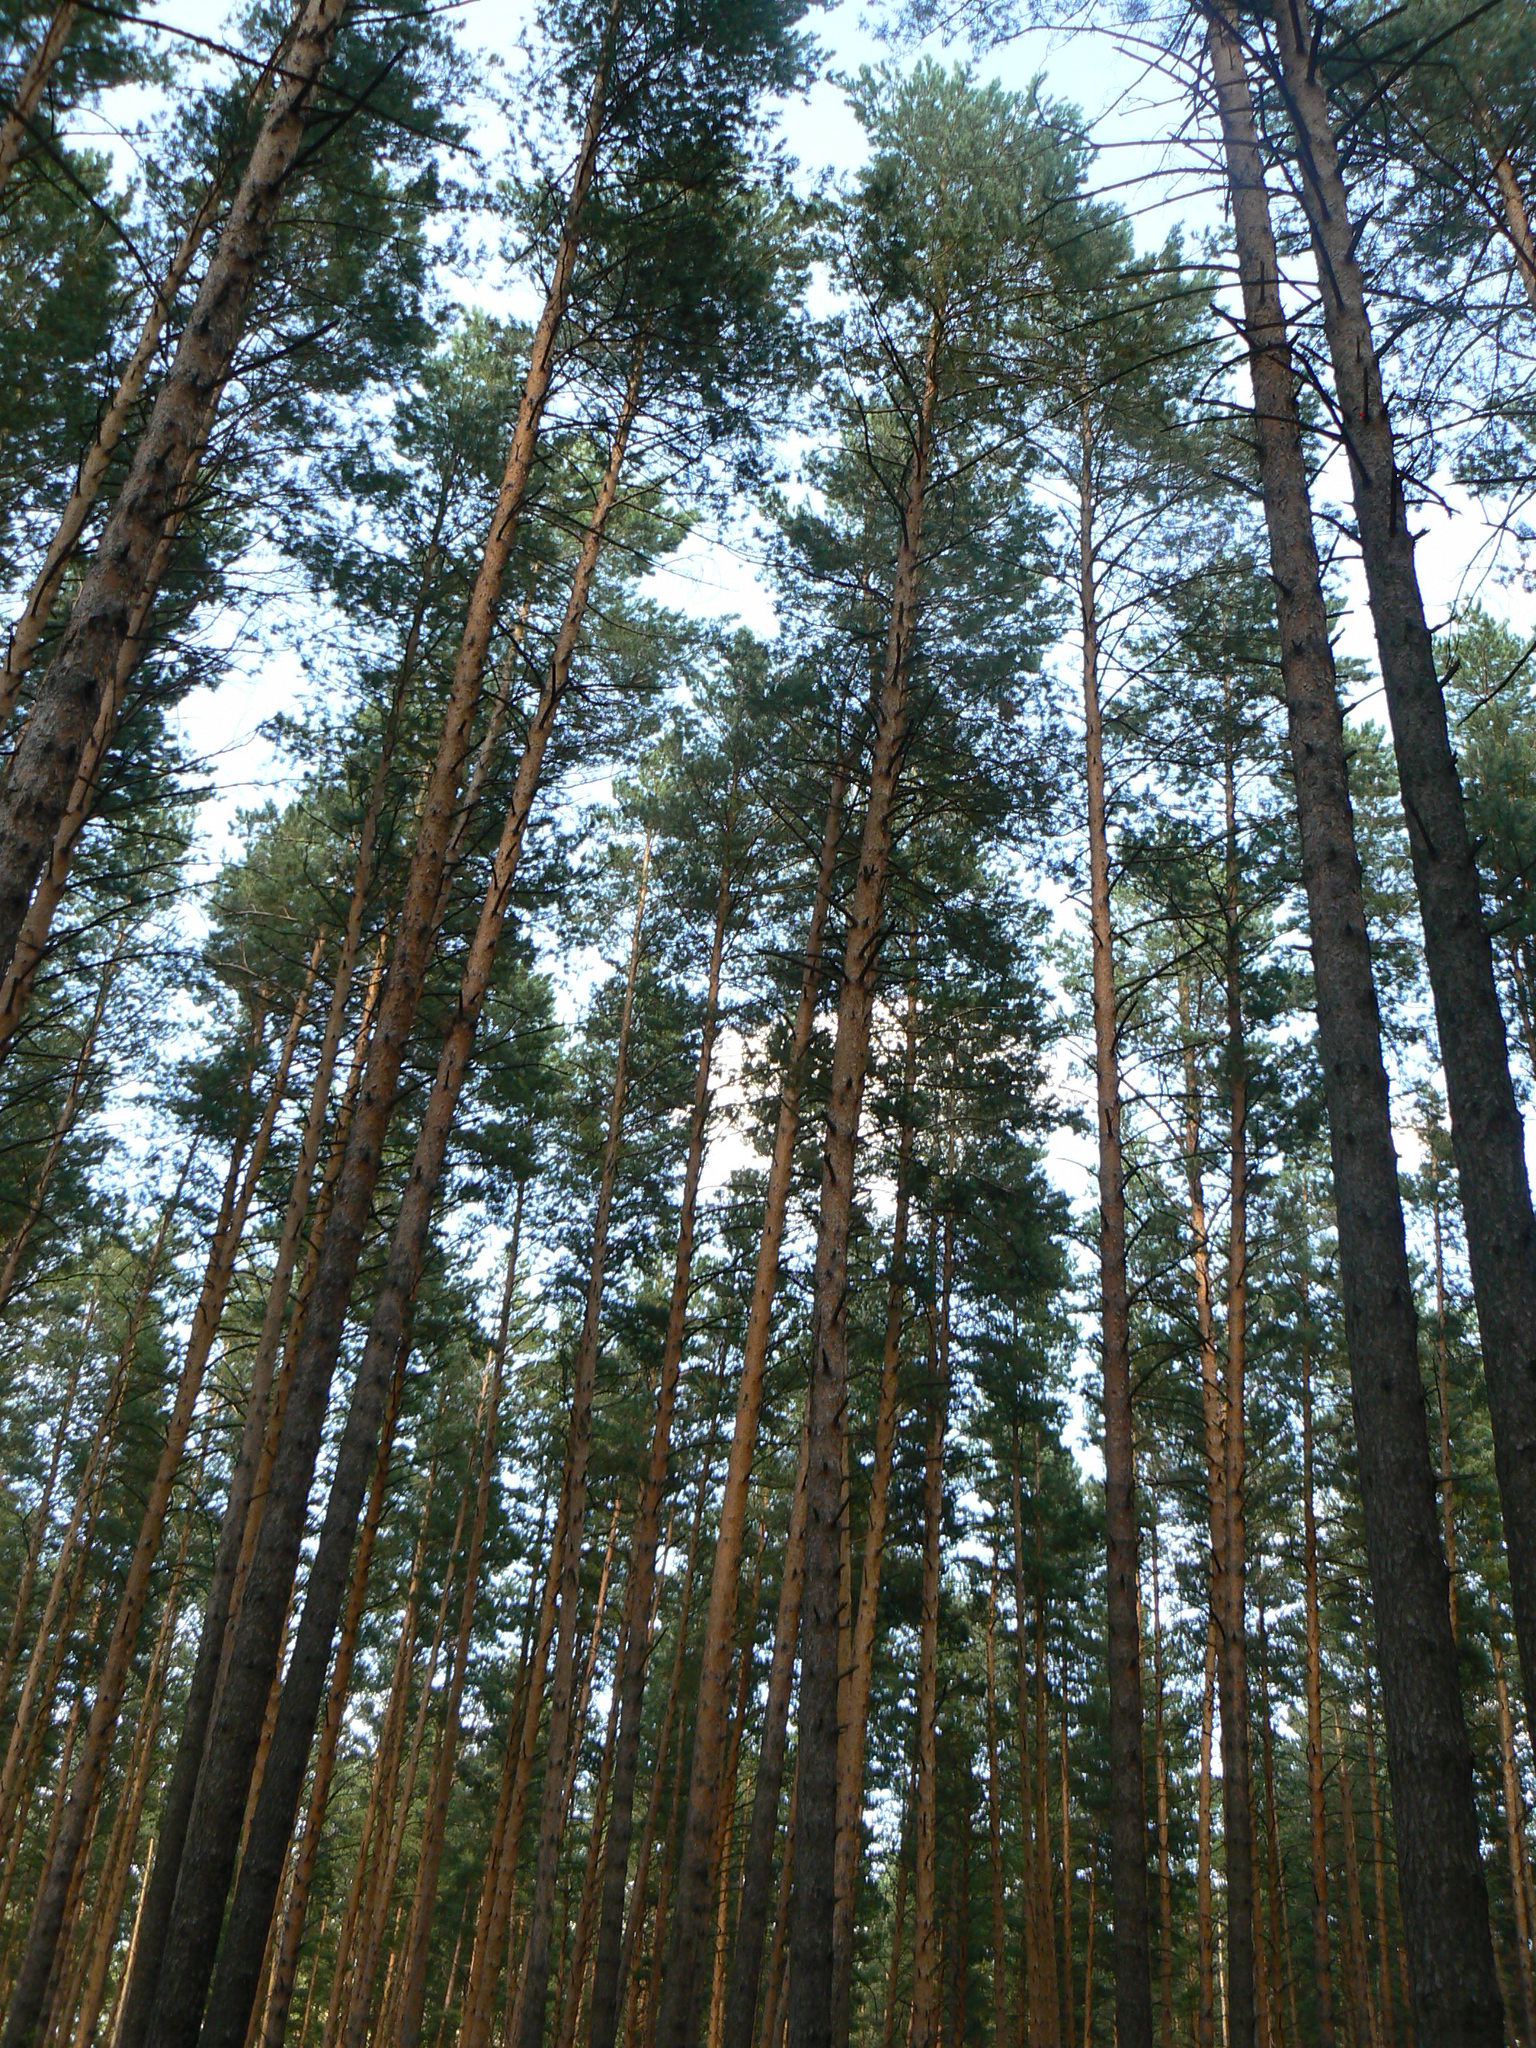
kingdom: Plantae
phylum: Tracheophyta
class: Pinopsida
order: Pinales
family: Pinaceae
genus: Pinus
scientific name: Pinus sylvestris
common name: Scots pine
